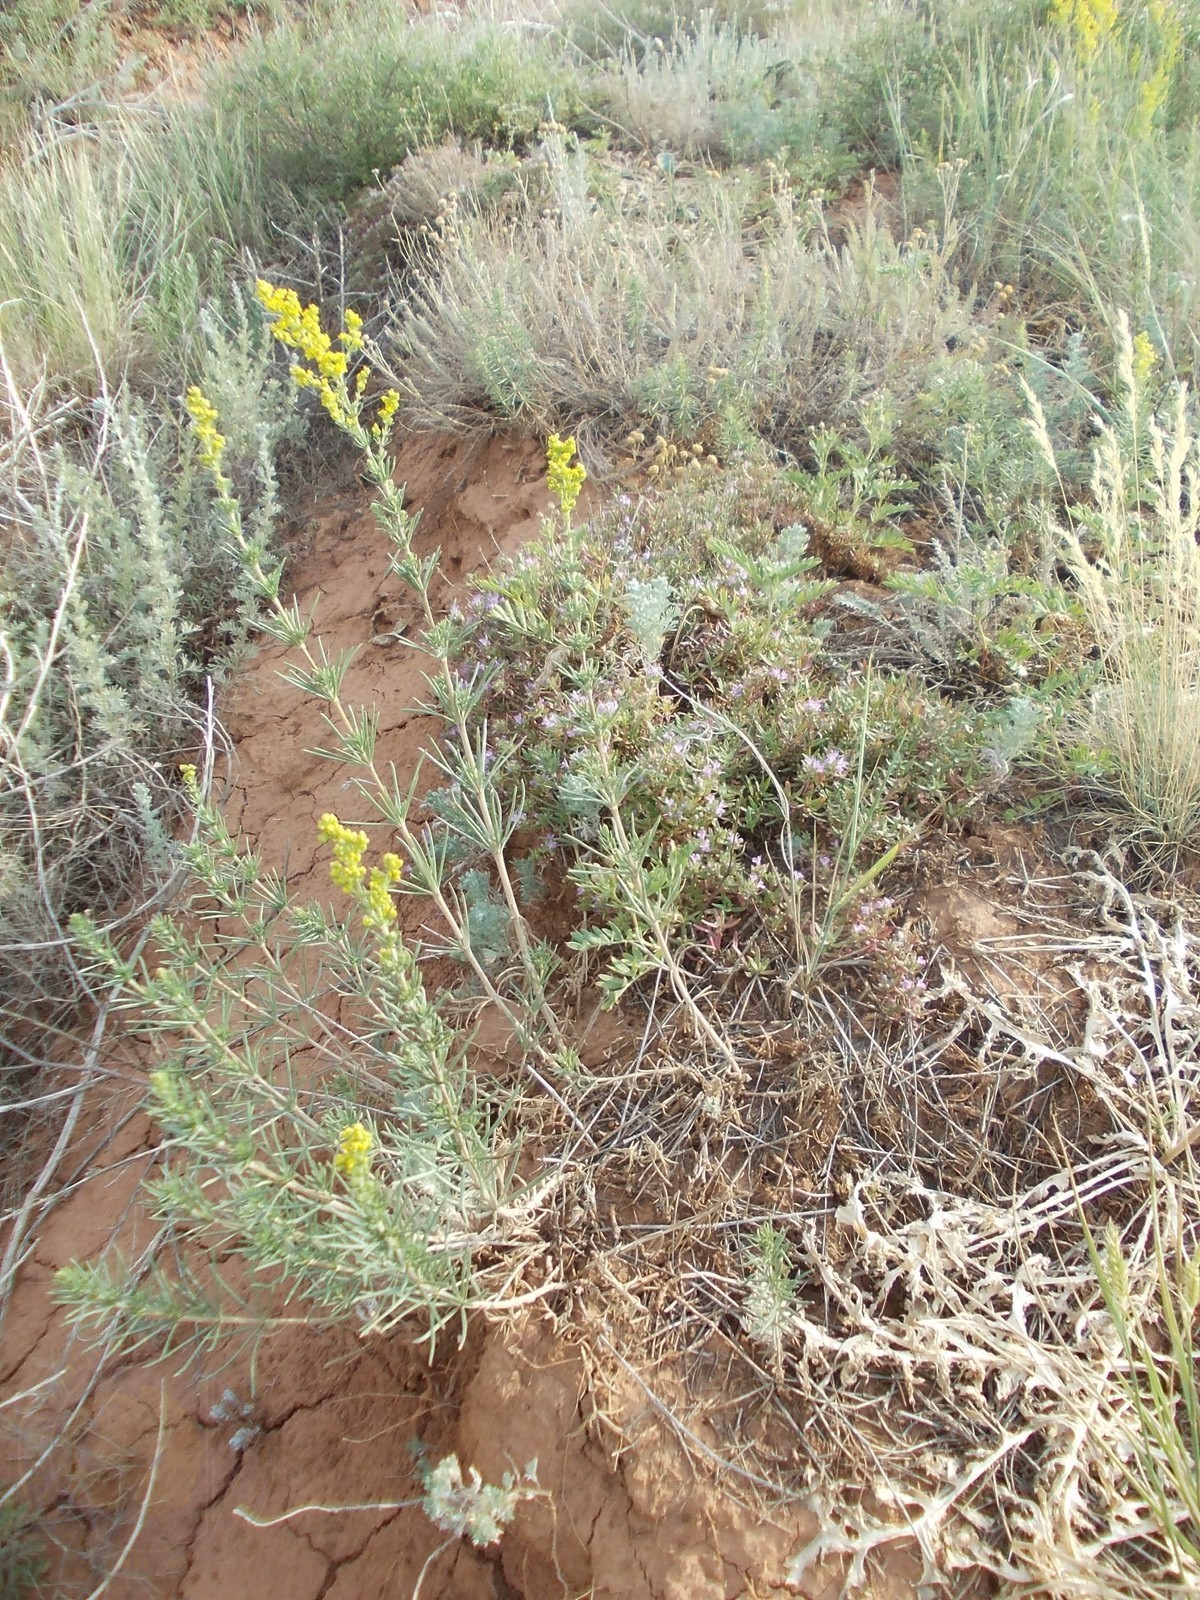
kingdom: Plantae
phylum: Tracheophyta
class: Magnoliopsida
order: Gentianales
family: Rubiaceae
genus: Galium
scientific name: Galium verum
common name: Lady's bedstraw
